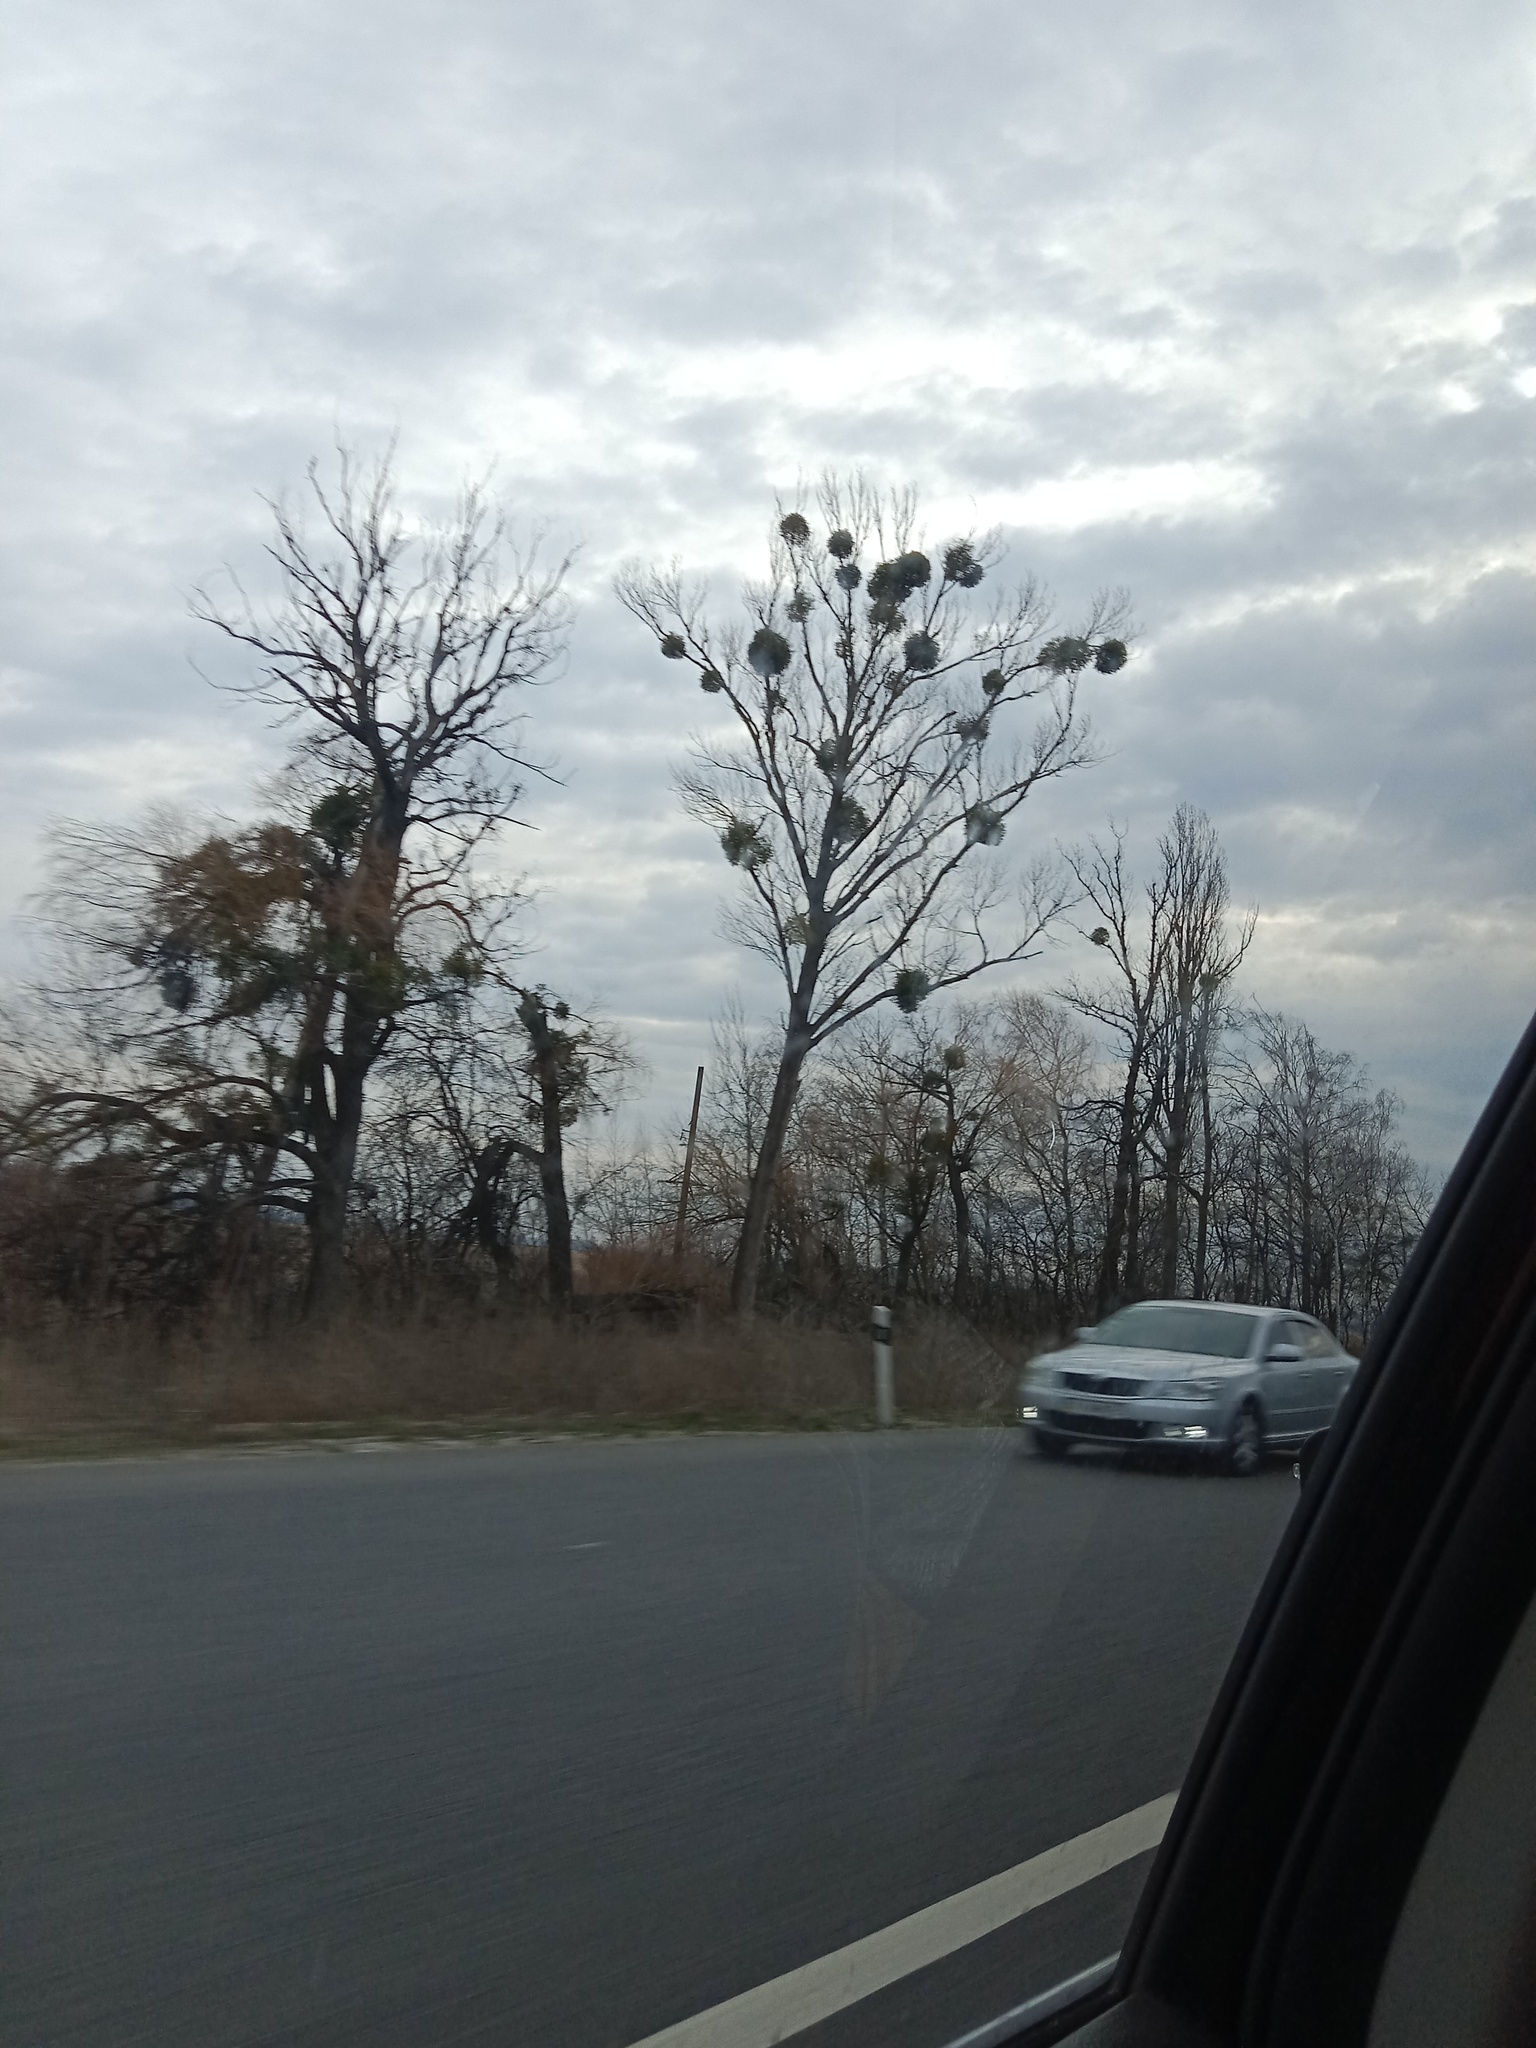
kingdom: Plantae
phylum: Tracheophyta
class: Magnoliopsida
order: Santalales
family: Viscaceae
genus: Viscum
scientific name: Viscum album
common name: Mistletoe
